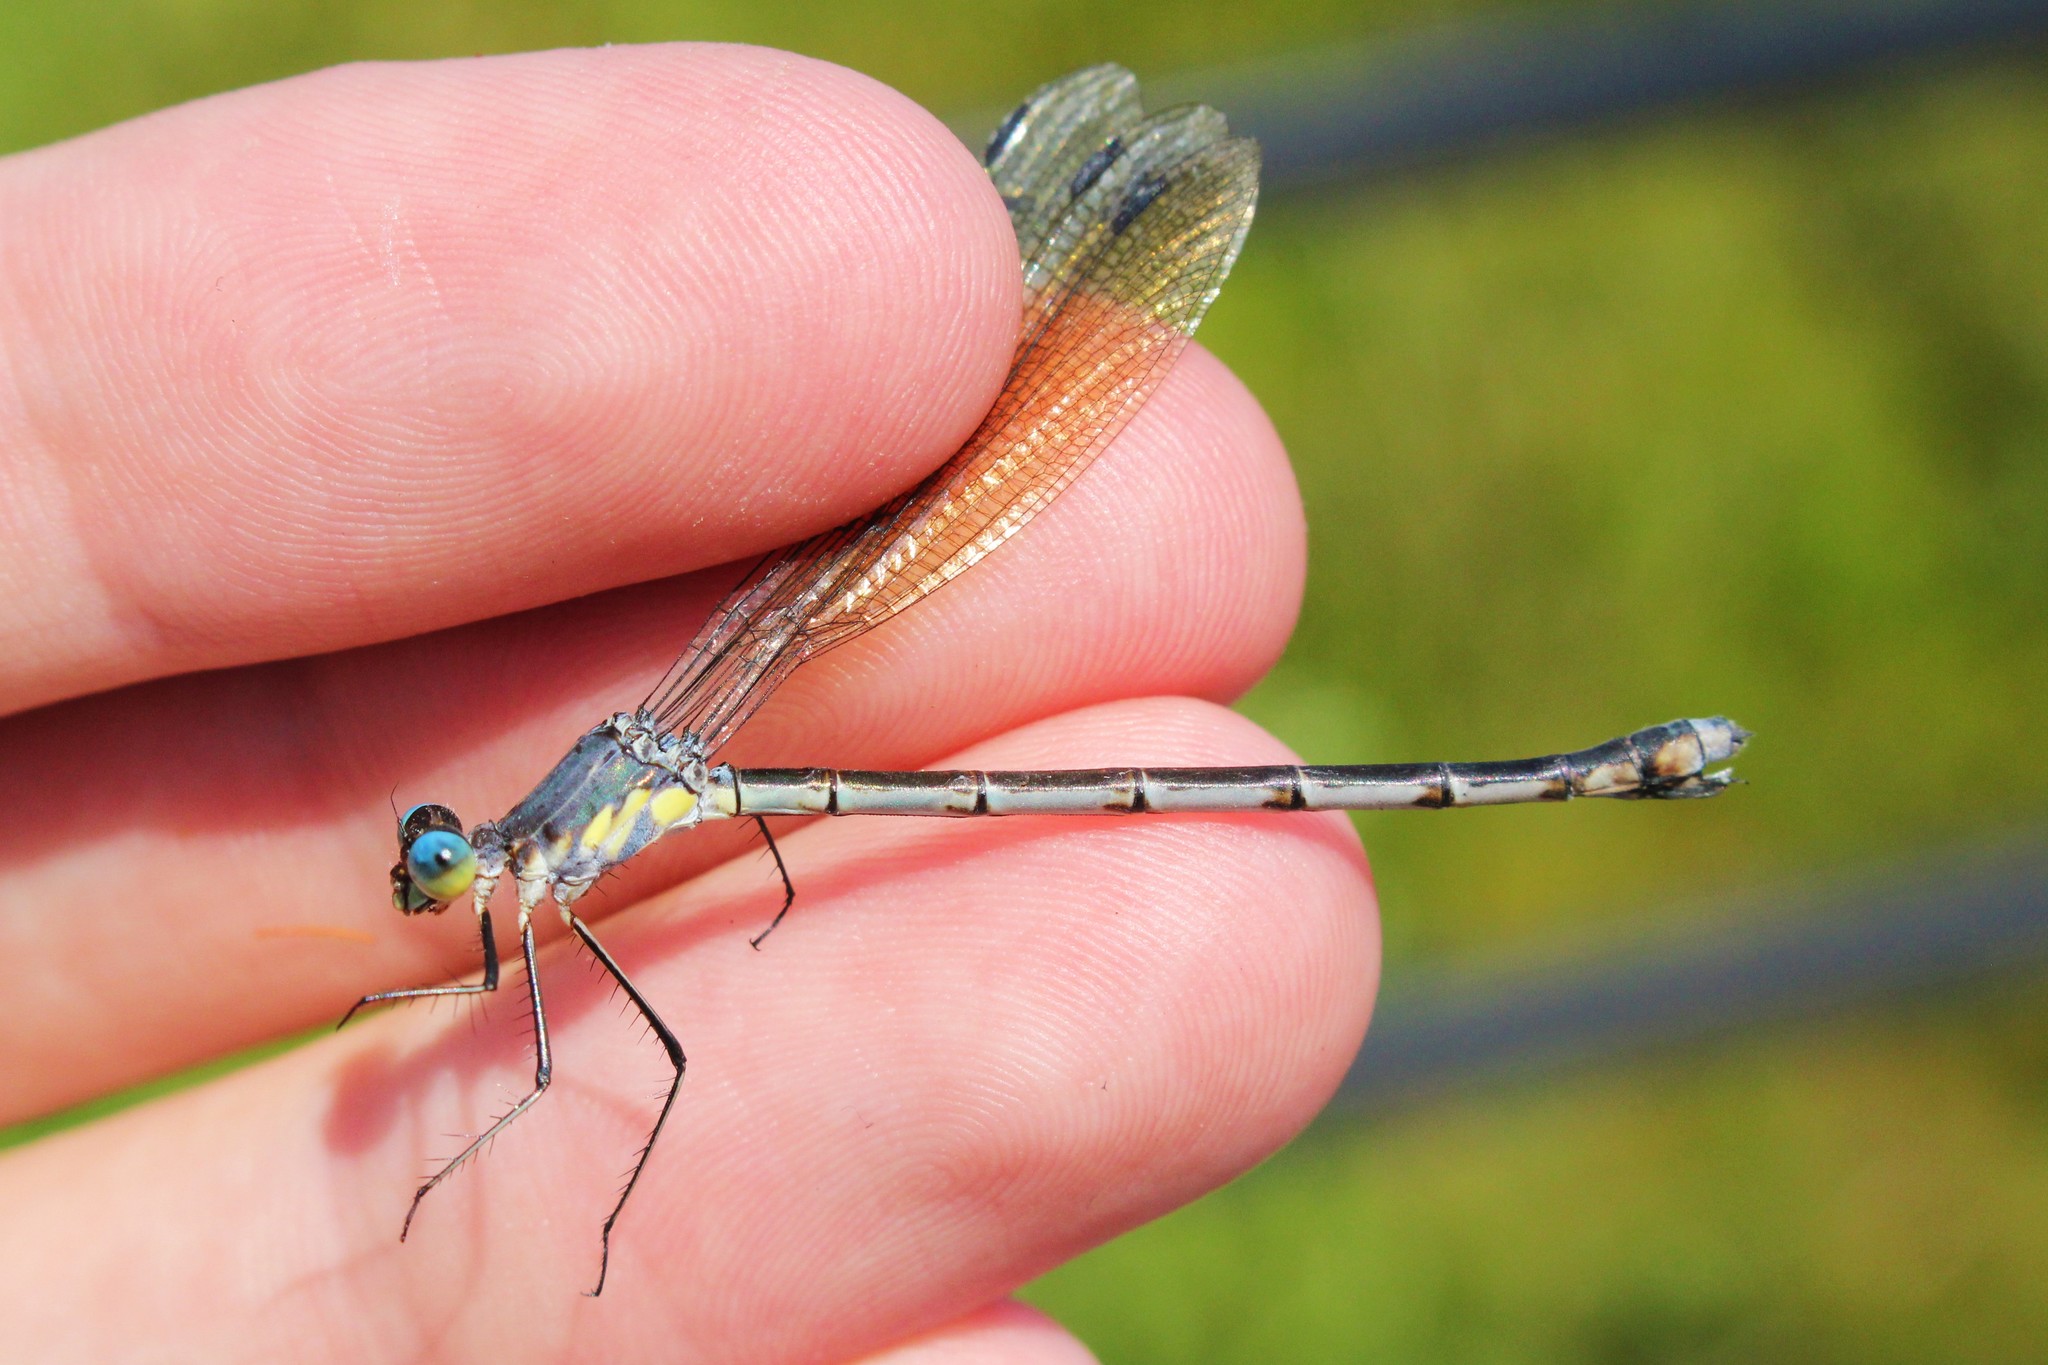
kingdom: Animalia
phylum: Arthropoda
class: Insecta
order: Odonata
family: Lestidae
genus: Lestes
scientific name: Lestes eurinus
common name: Amber-winged spreadwing
